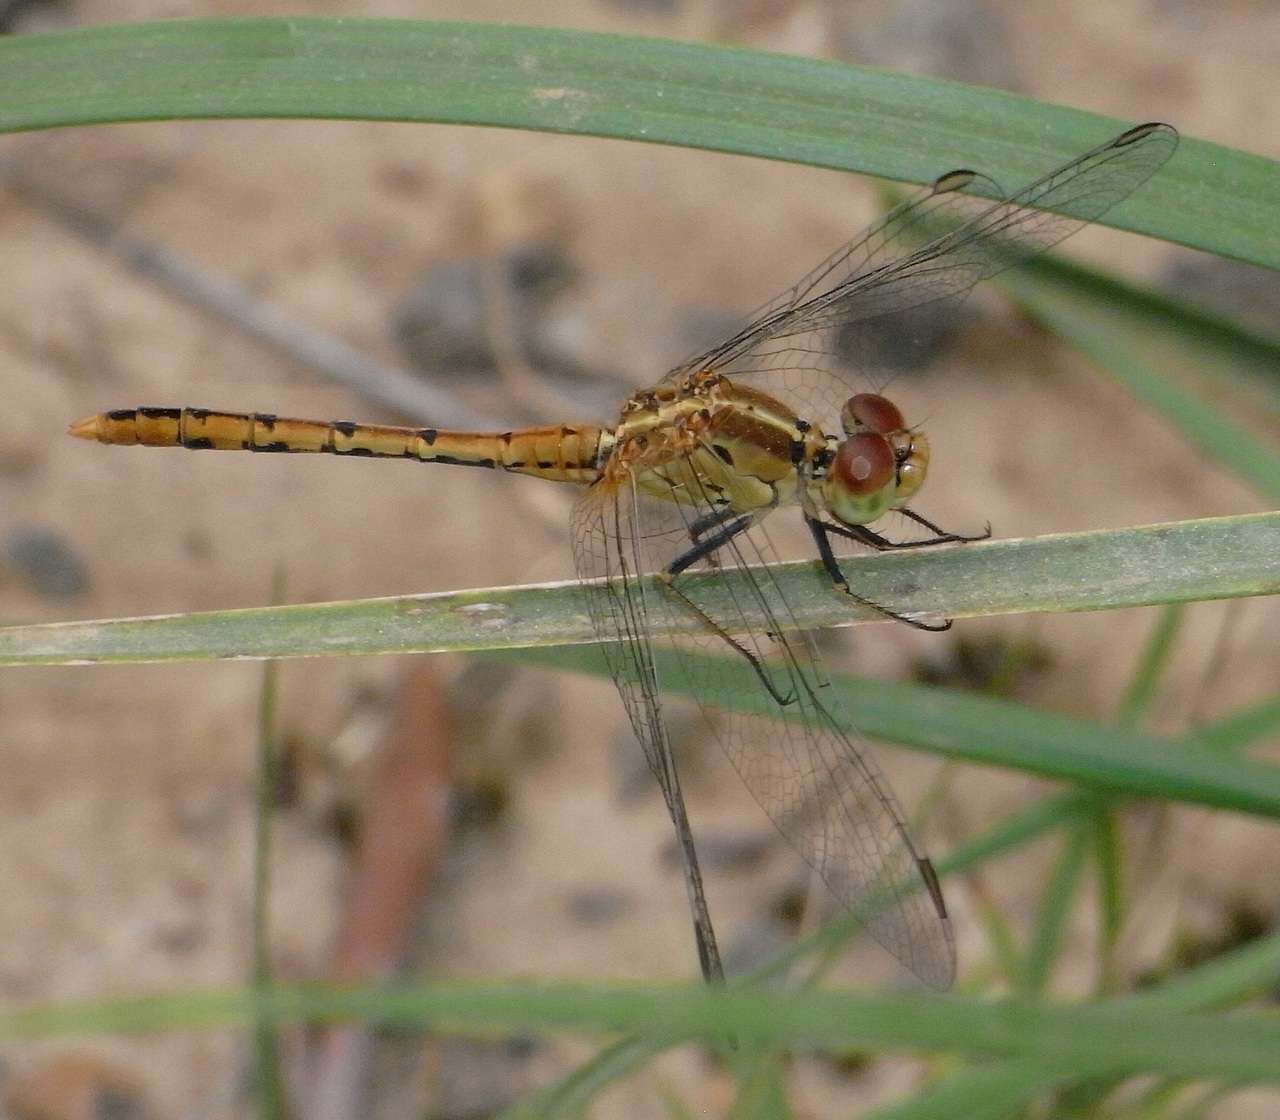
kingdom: Animalia
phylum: Arthropoda
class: Insecta
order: Odonata
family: Libellulidae
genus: Diplacodes
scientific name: Diplacodes bipunctata
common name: Red percher dragonfly
